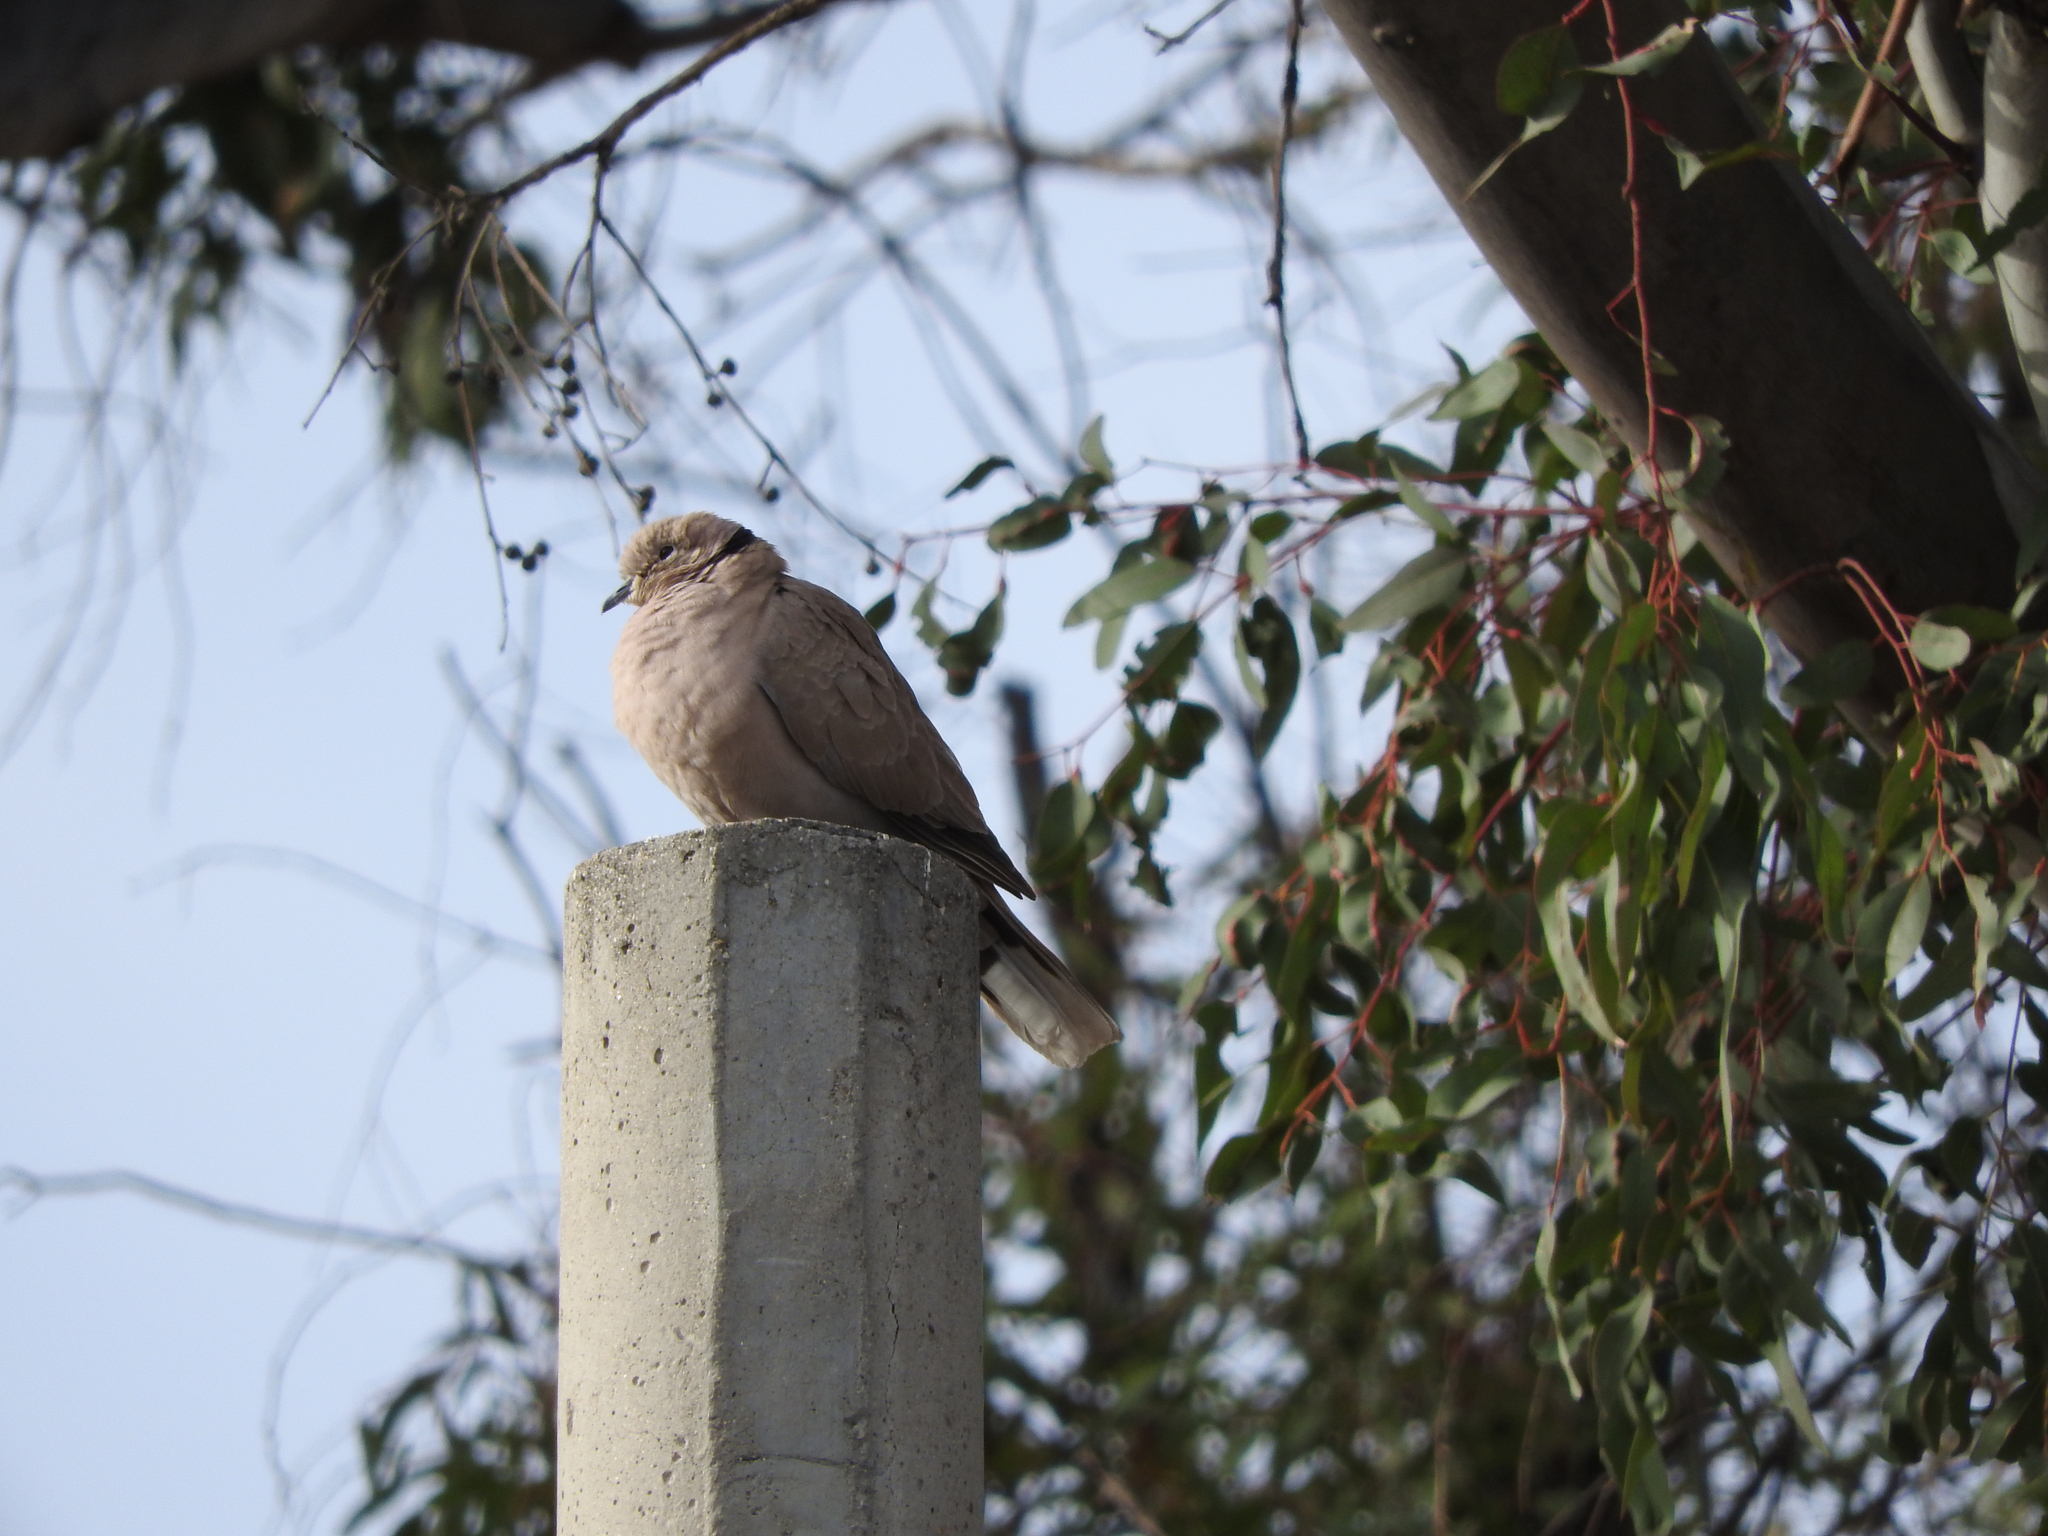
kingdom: Animalia
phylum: Chordata
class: Aves
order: Columbiformes
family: Columbidae
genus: Streptopelia
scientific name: Streptopelia decaocto
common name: Eurasian collared dove
